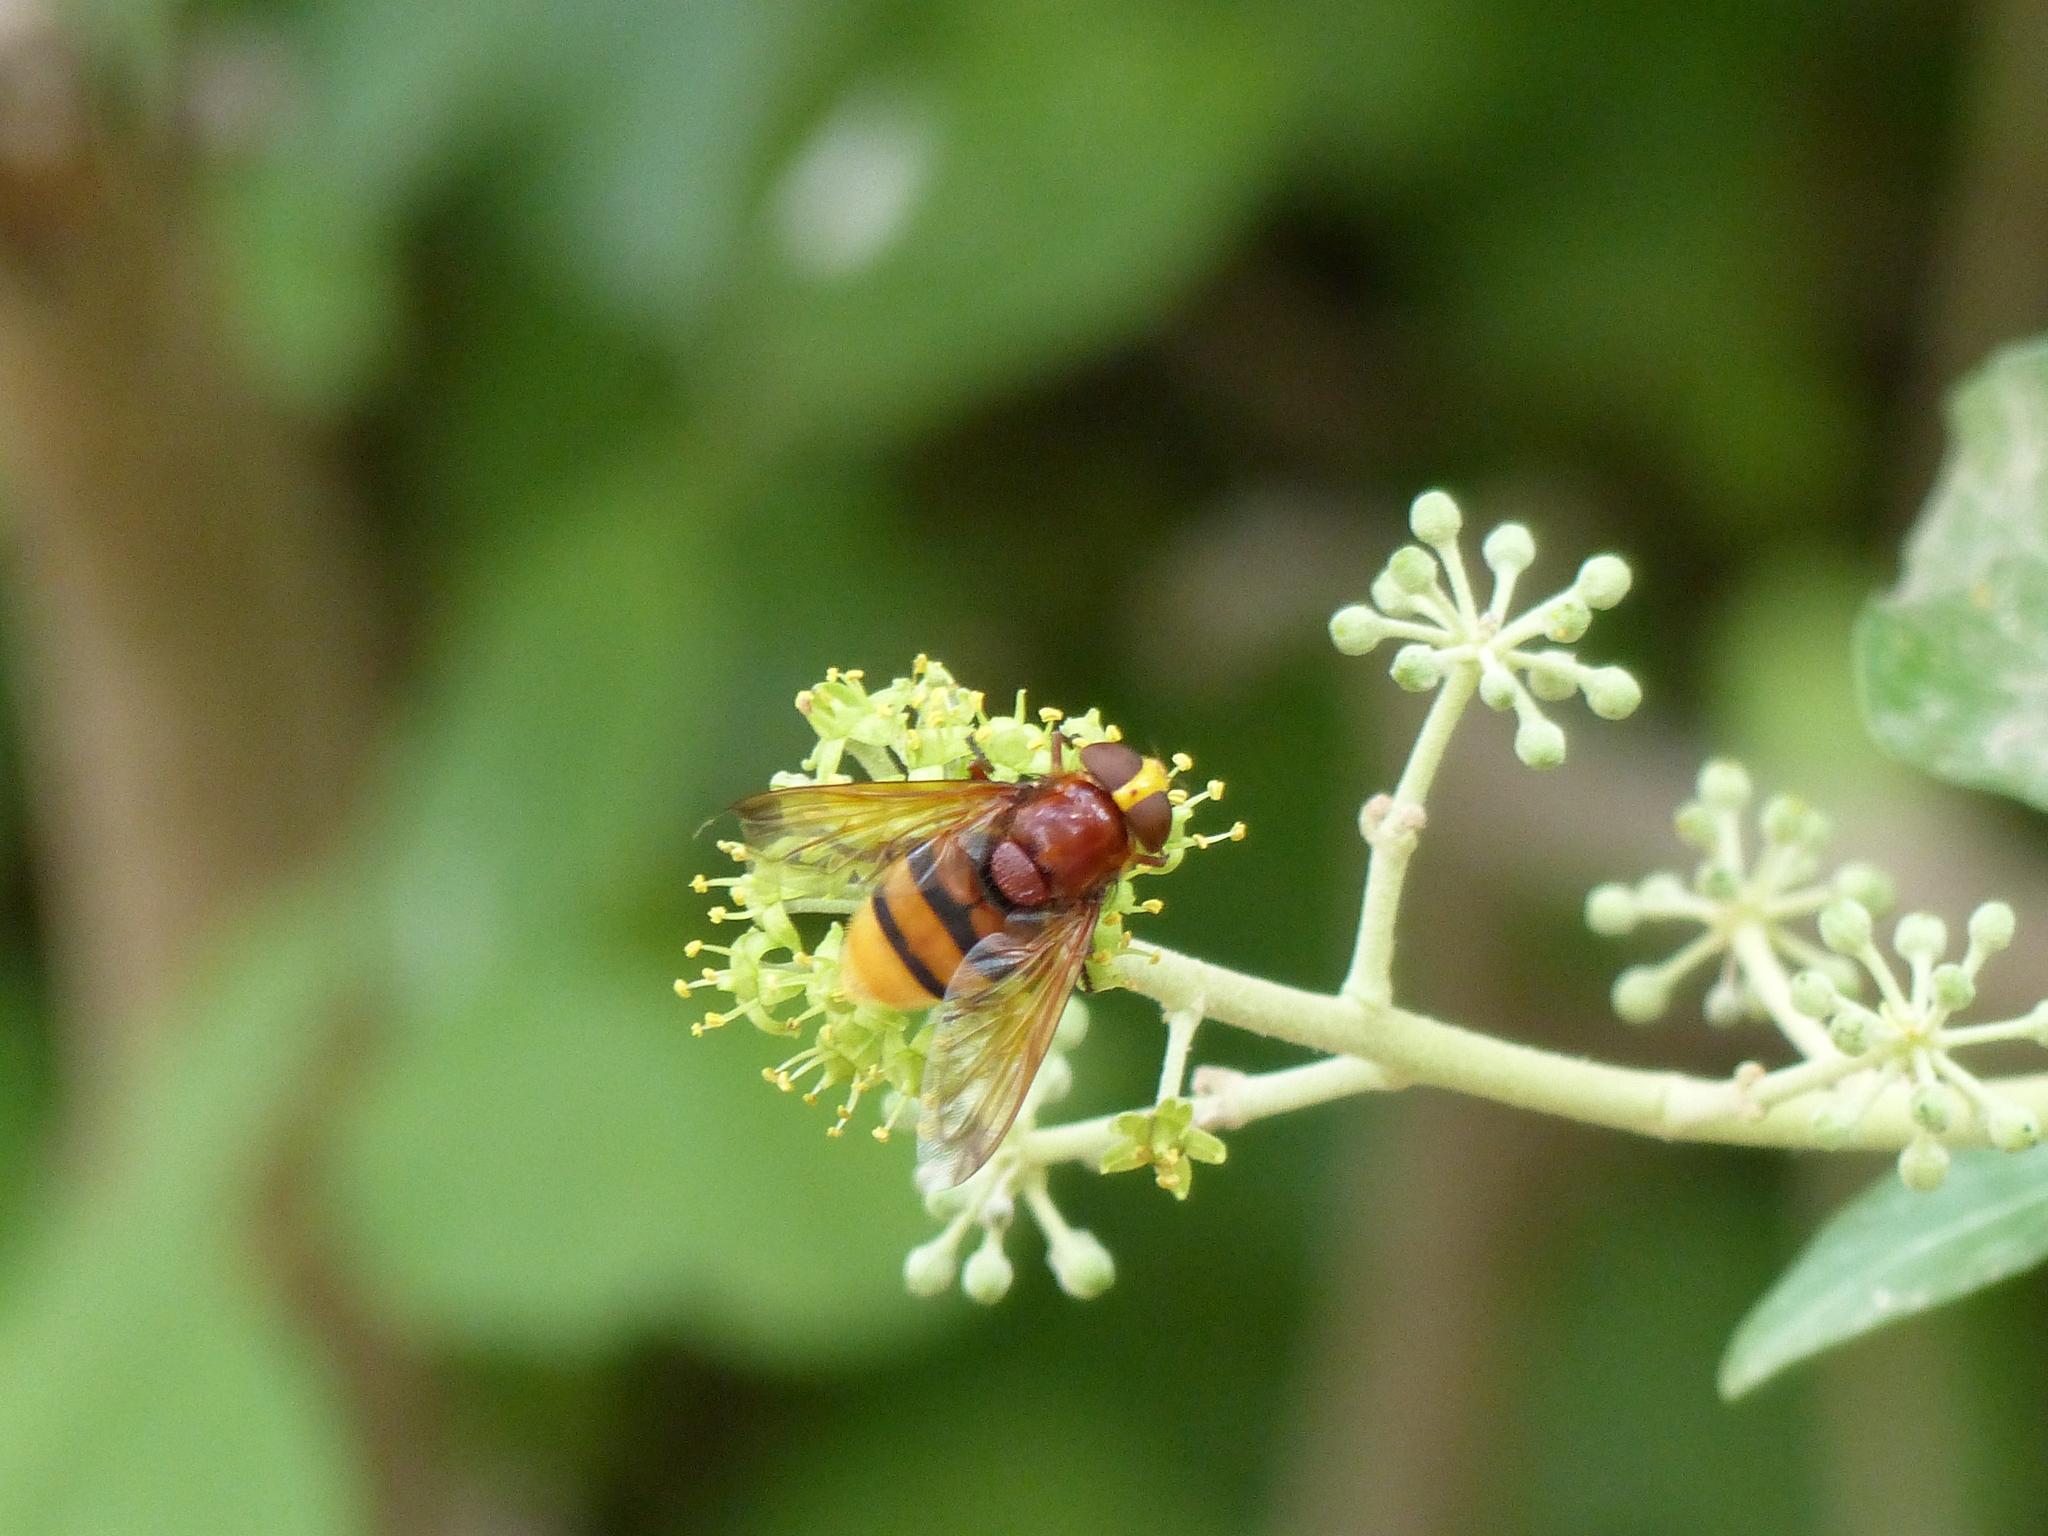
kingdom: Animalia
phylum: Arthropoda
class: Insecta
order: Diptera
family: Syrphidae
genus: Volucella
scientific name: Volucella zonaria
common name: Hornet hoverfly
